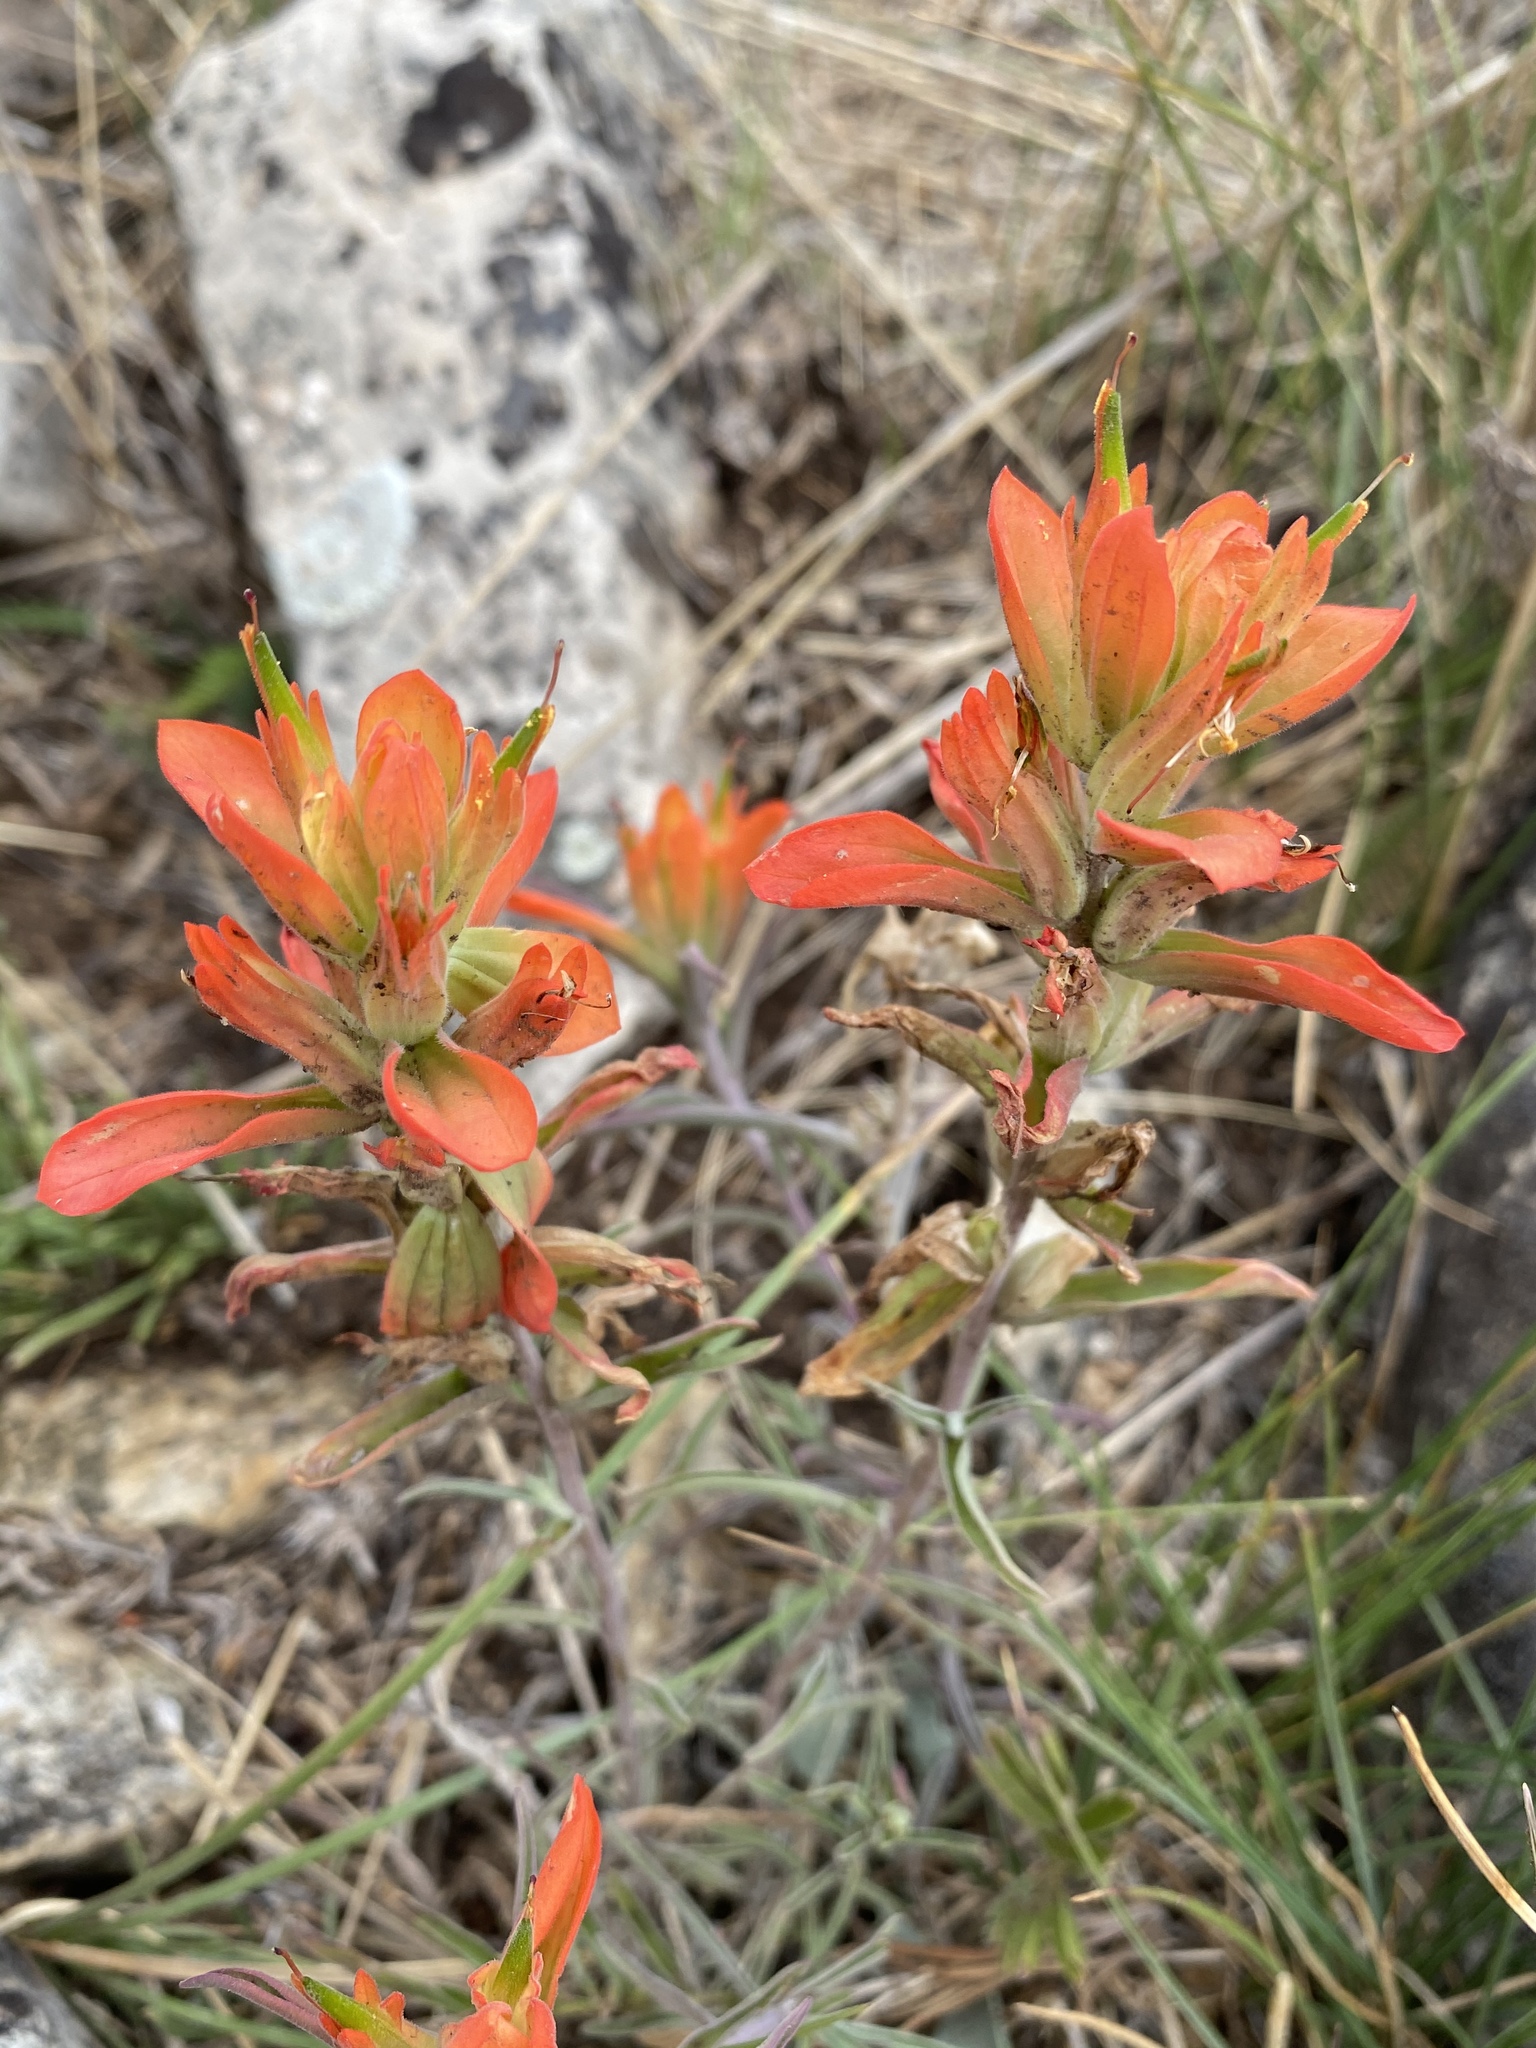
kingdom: Plantae
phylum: Tracheophyta
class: Magnoliopsida
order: Lamiales
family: Orobanchaceae
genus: Castilleja
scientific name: Castilleja integra
